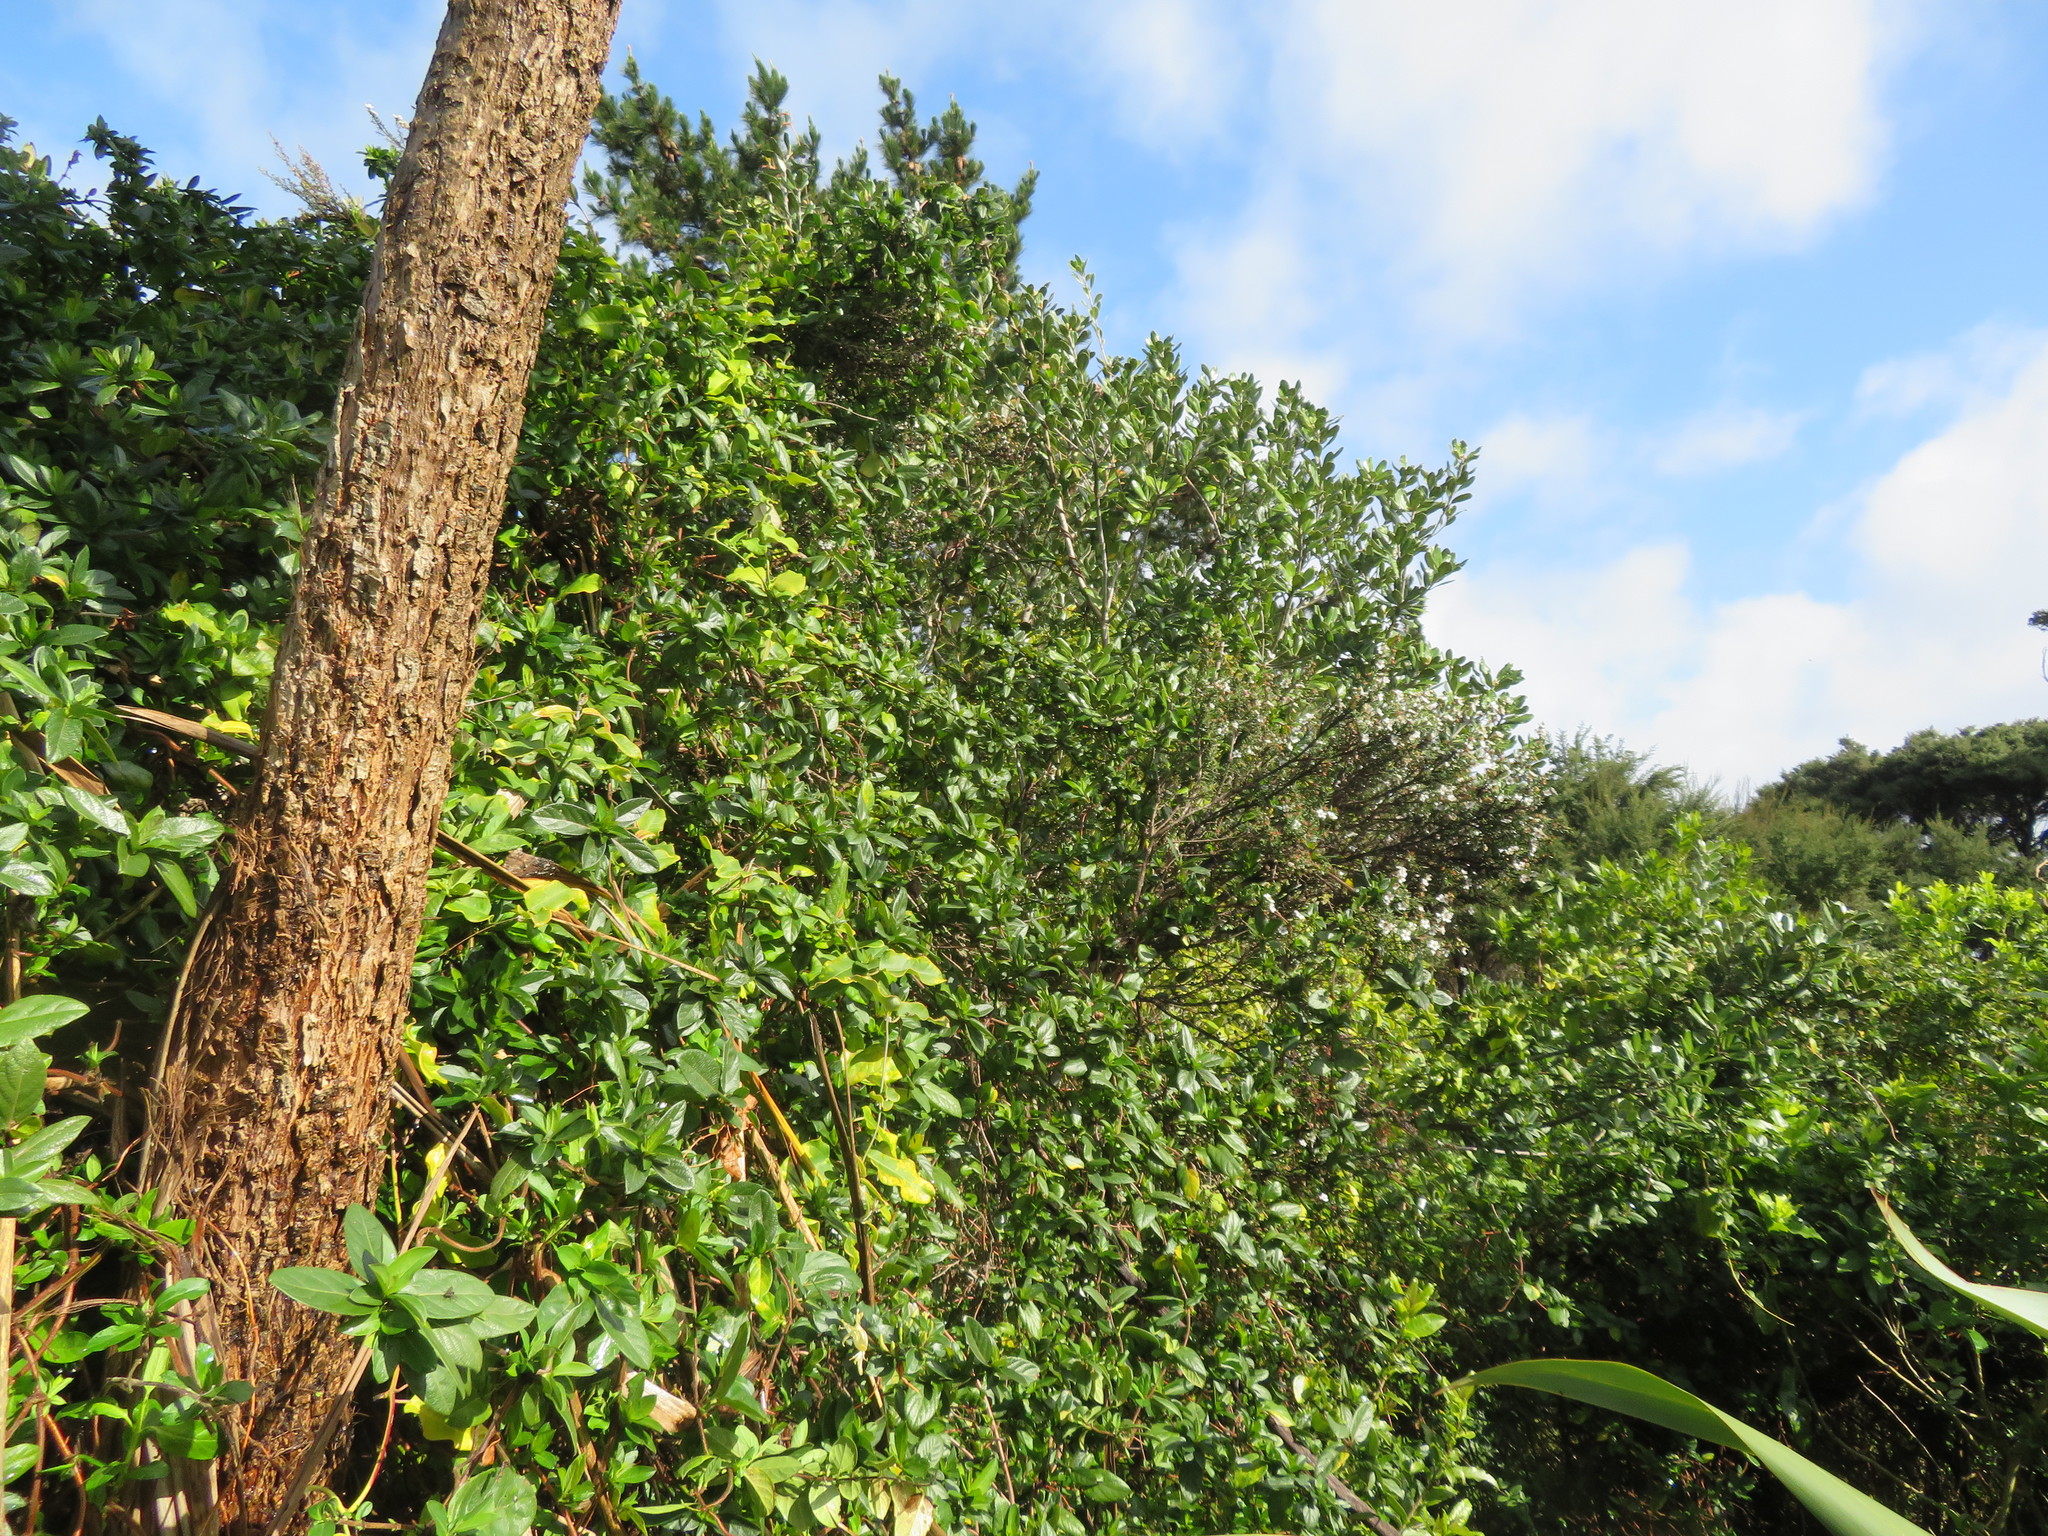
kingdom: Plantae
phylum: Tracheophyta
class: Magnoliopsida
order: Gentianales
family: Rubiaceae
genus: Coprosma
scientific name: Coprosma robusta
